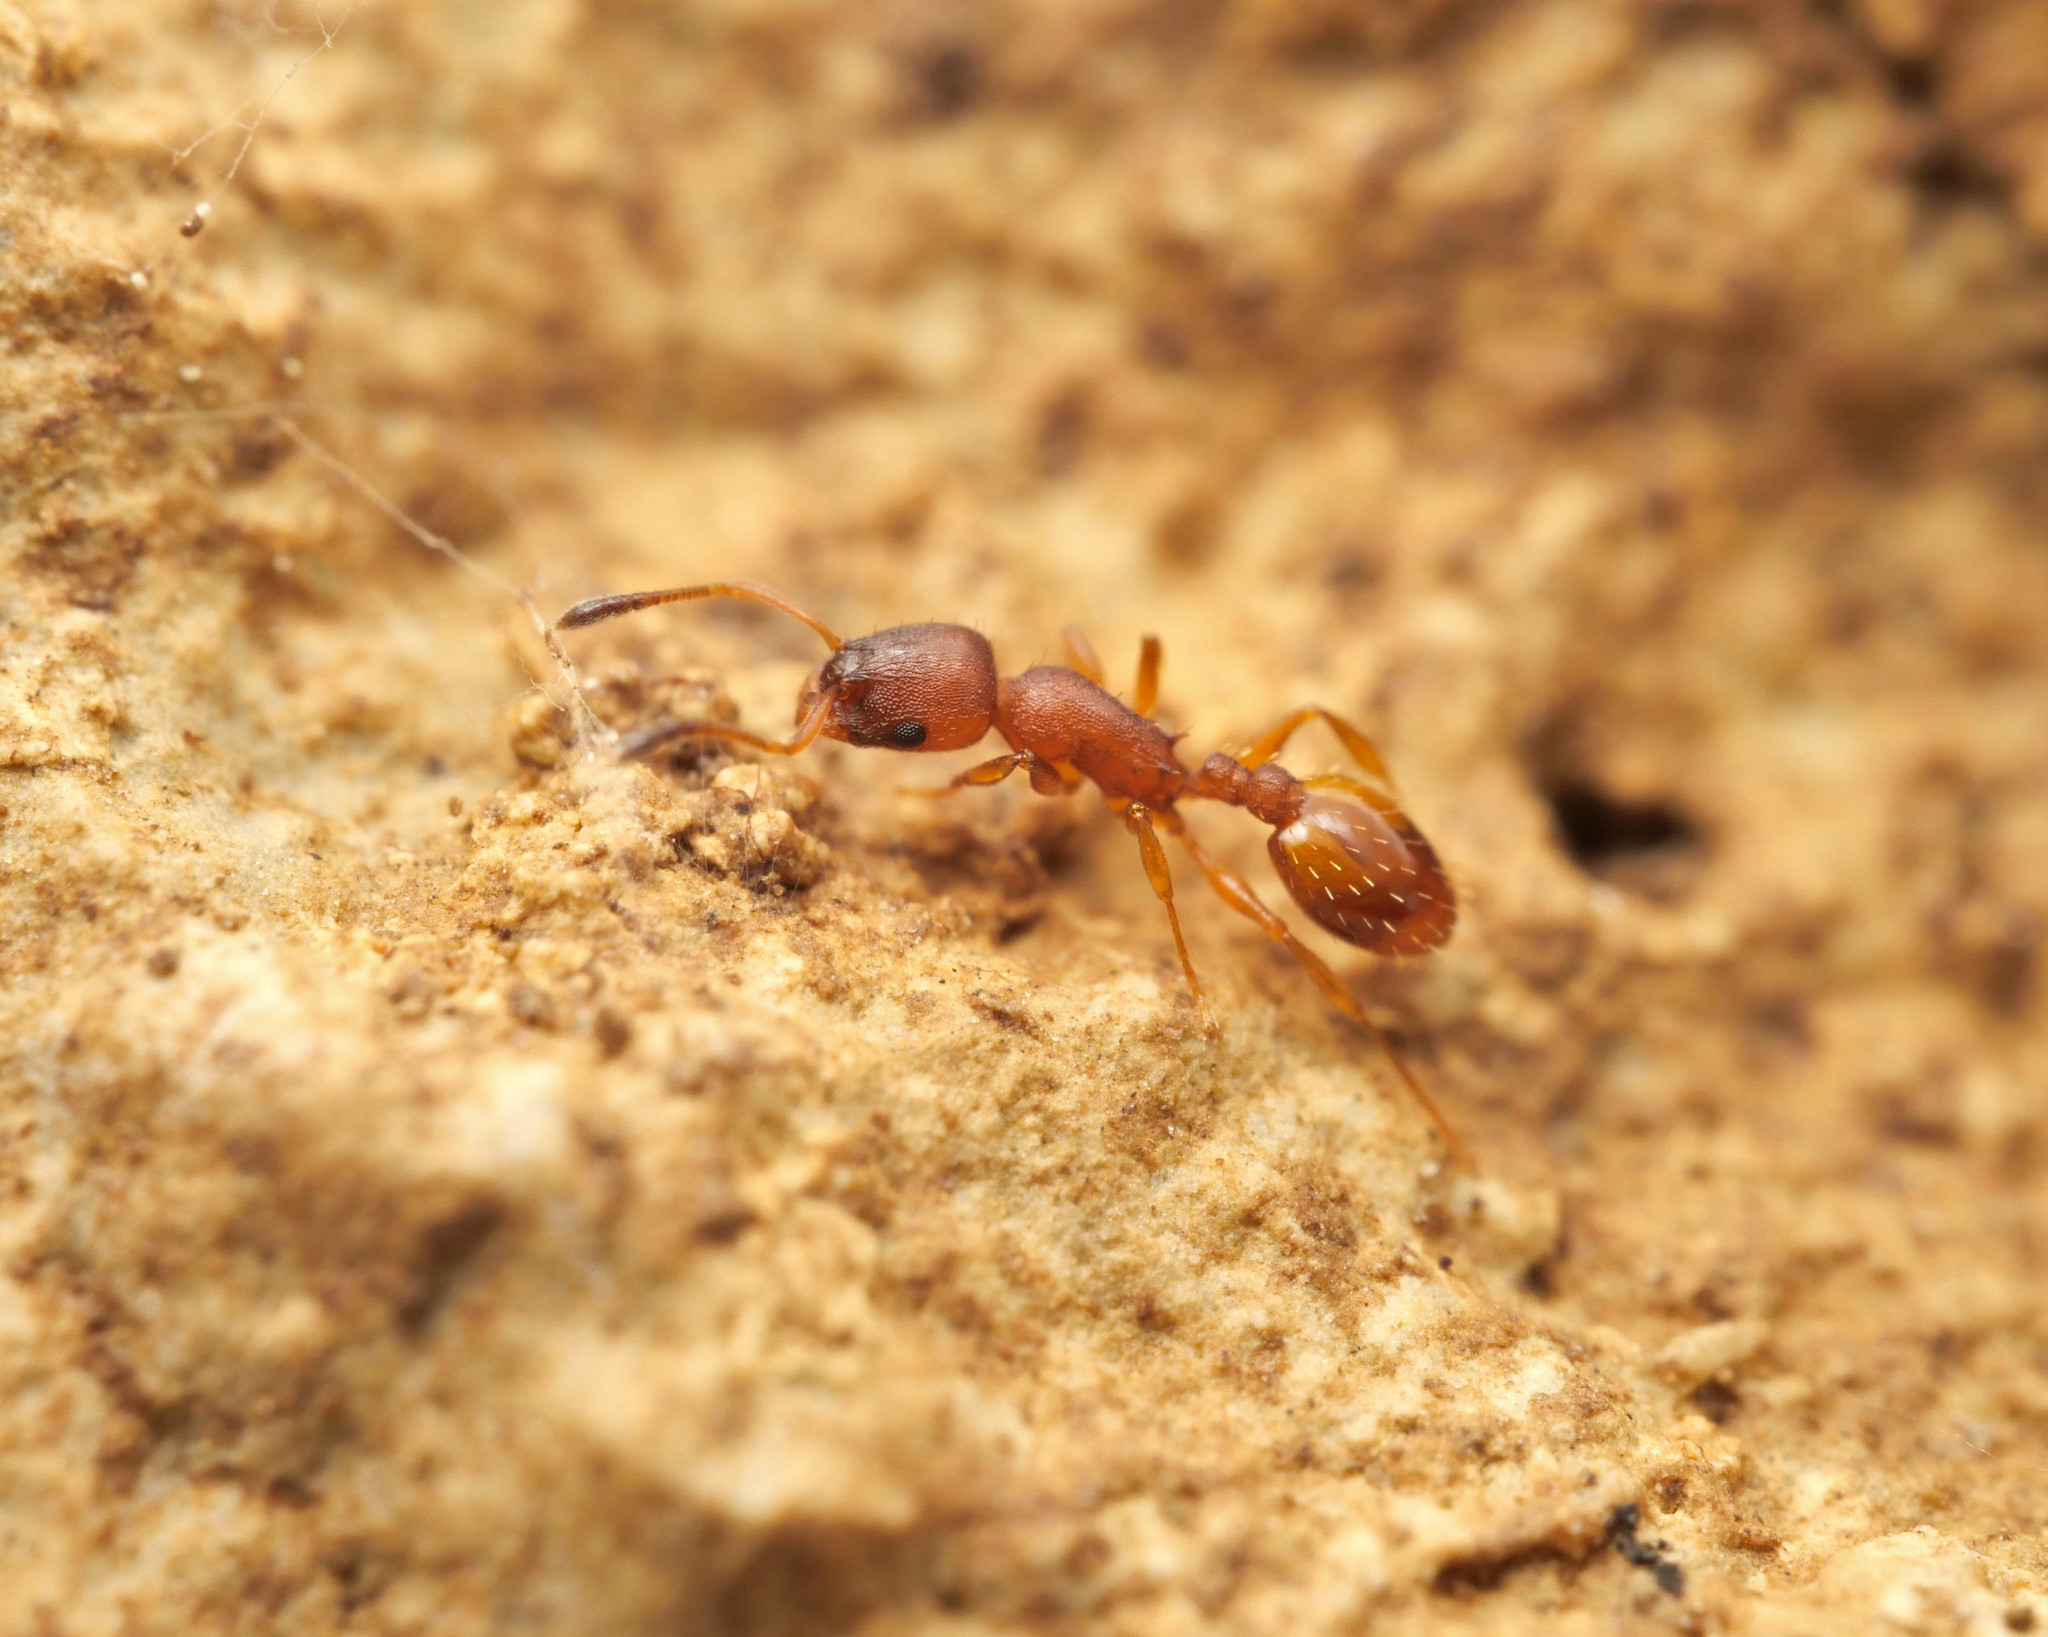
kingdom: Animalia
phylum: Arthropoda
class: Insecta
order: Hymenoptera
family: Formicidae
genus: Leptothorax
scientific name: Leptothorax interruptus
